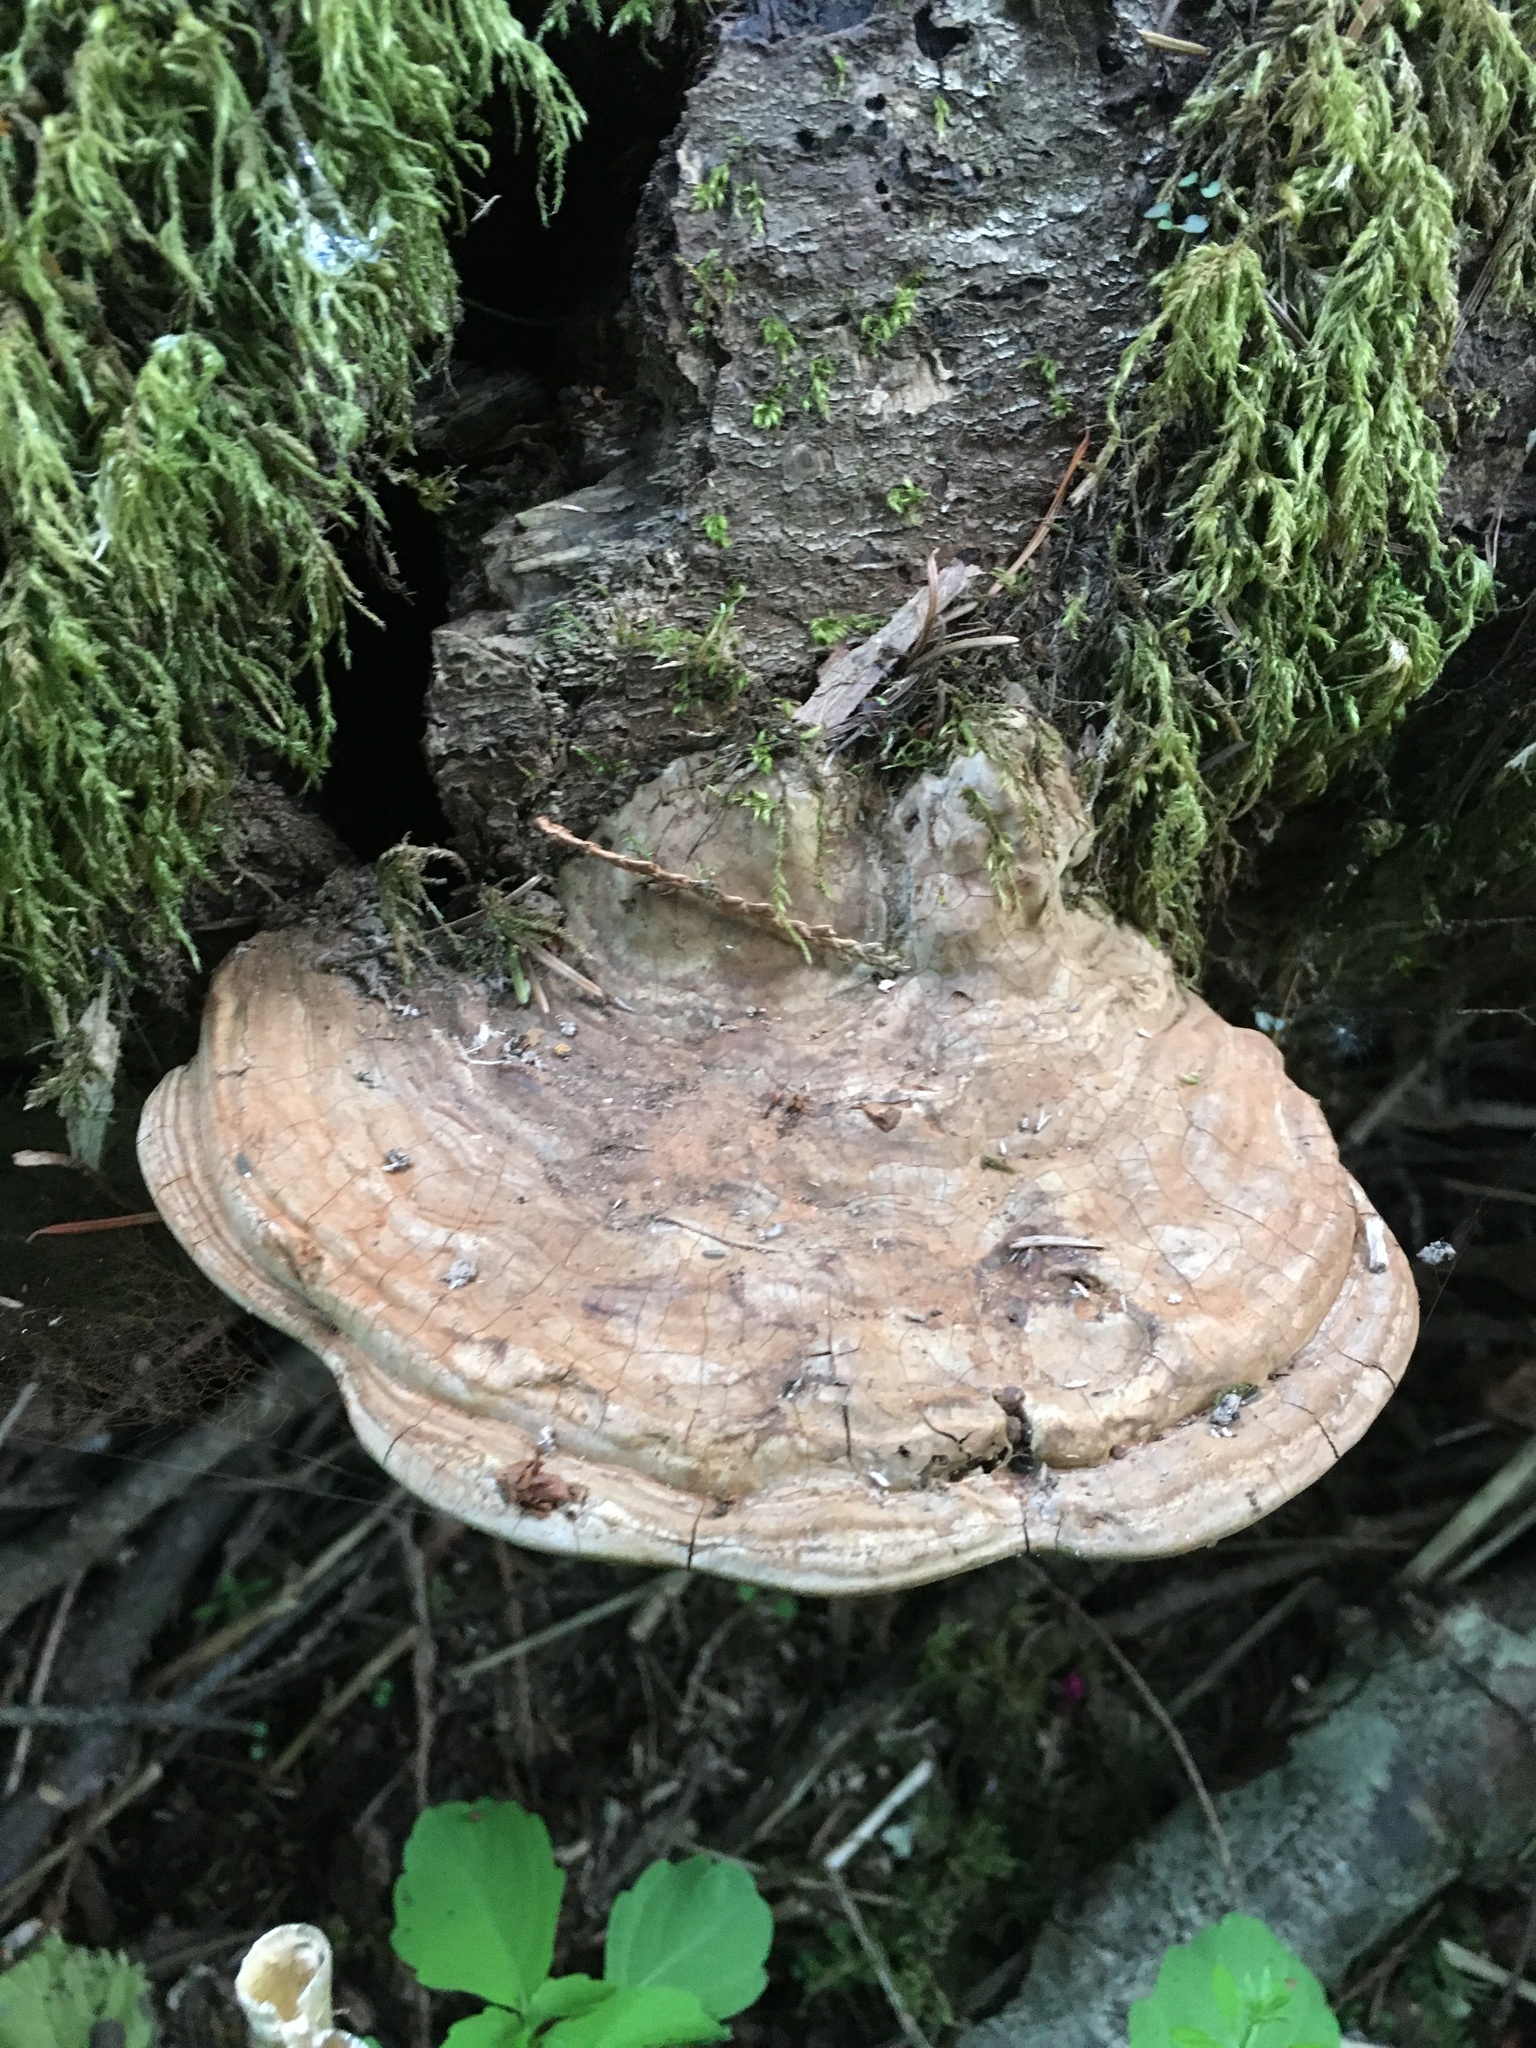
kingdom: Fungi
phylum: Basidiomycota
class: Agaricomycetes
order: Polyporales
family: Polyporaceae
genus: Ganoderma
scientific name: Ganoderma applanatum
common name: Artist's bracket
